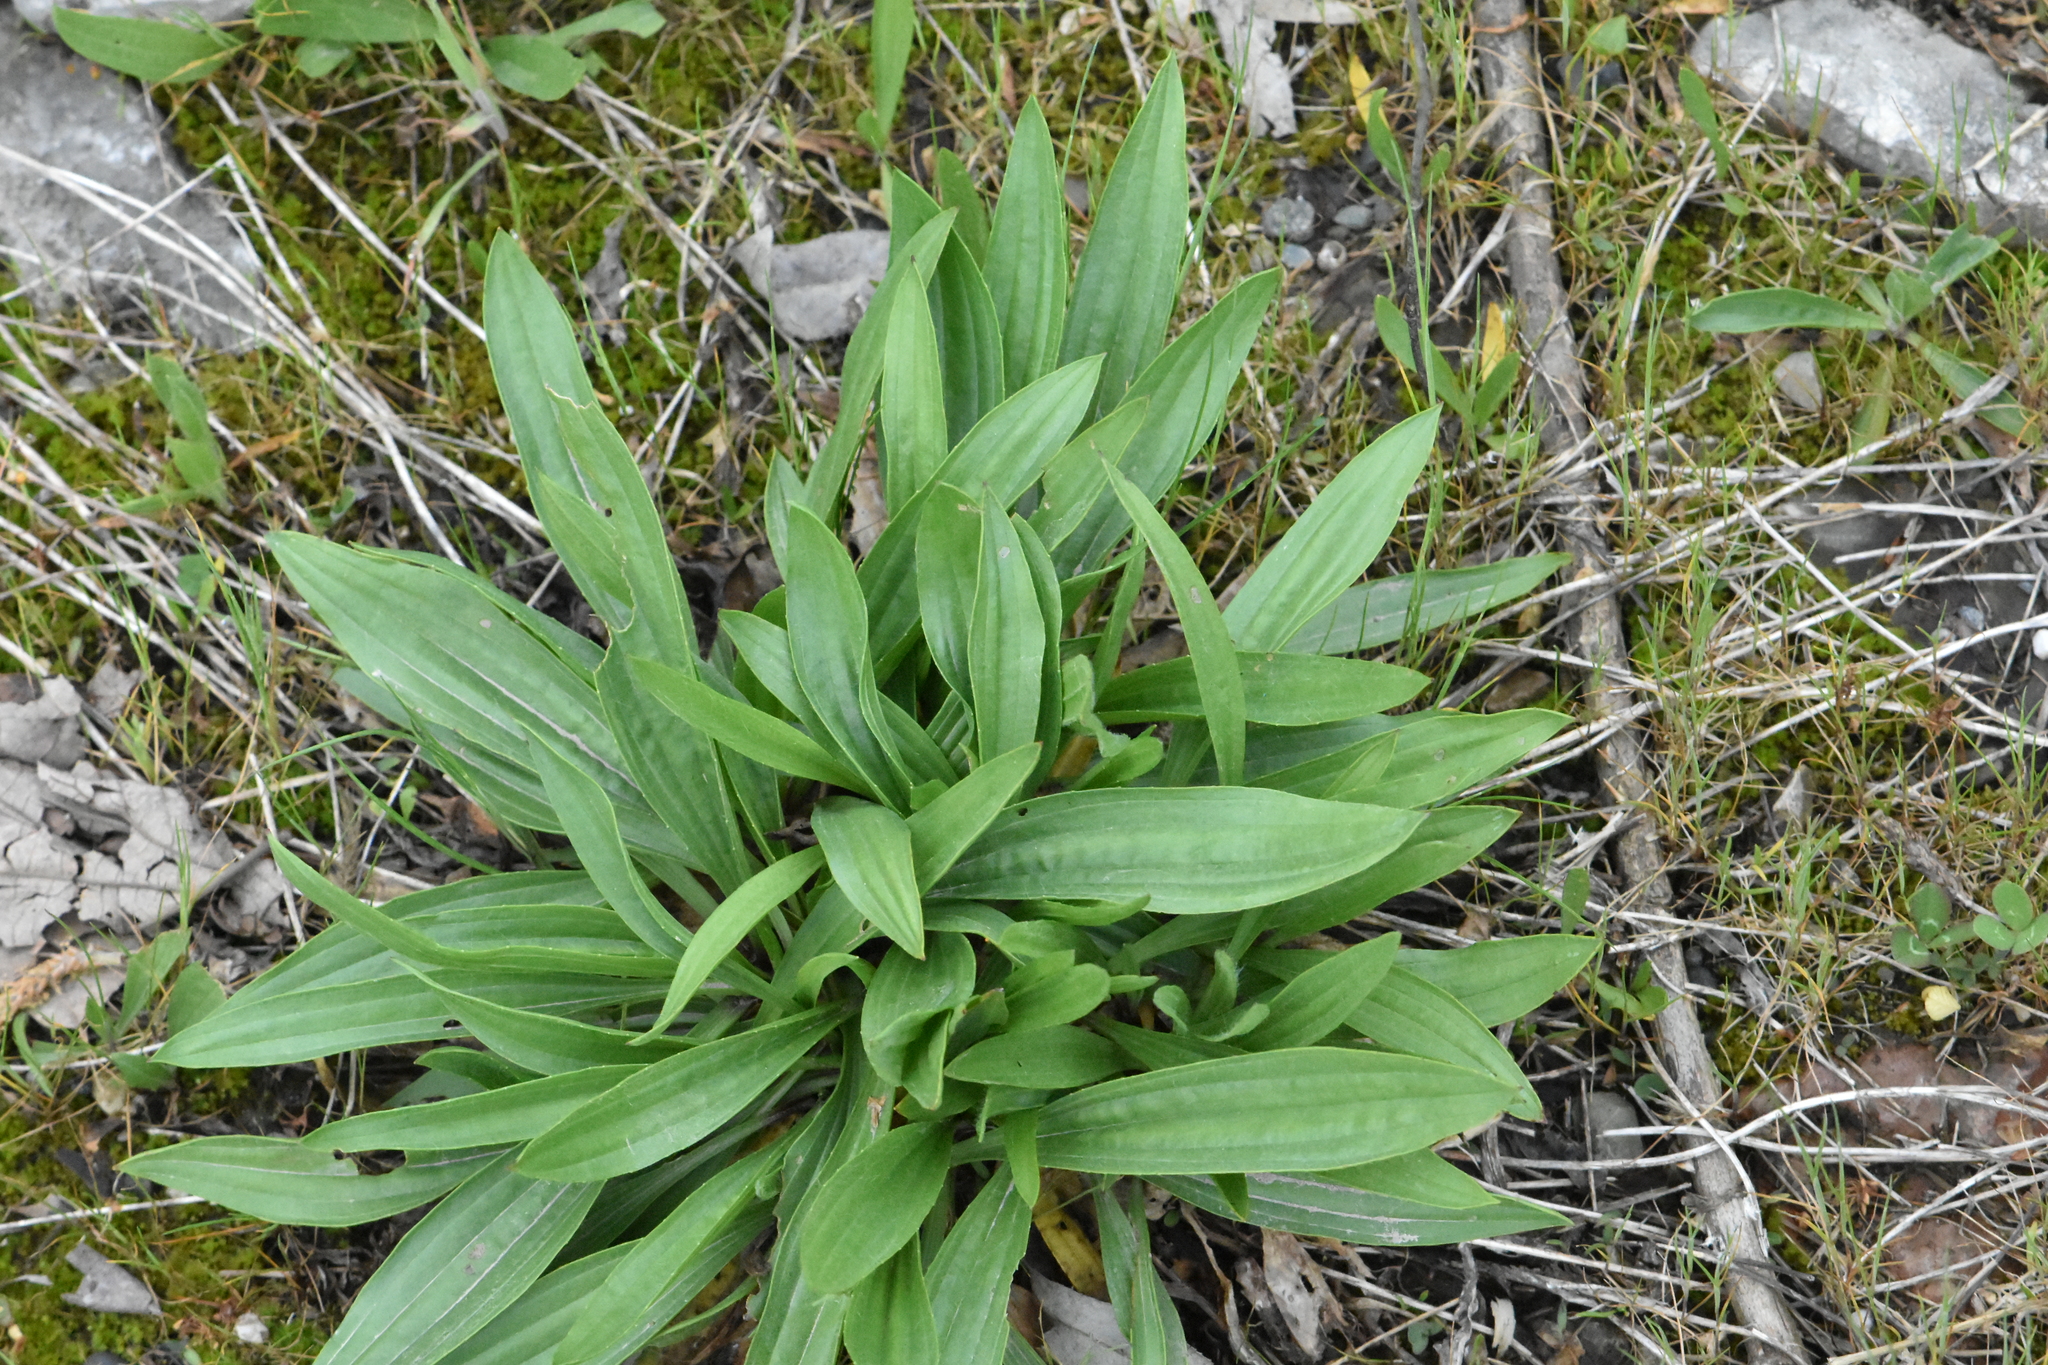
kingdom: Plantae
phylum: Tracheophyta
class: Magnoliopsida
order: Lamiales
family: Plantaginaceae
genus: Plantago
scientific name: Plantago lanceolata
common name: Ribwort plantain
